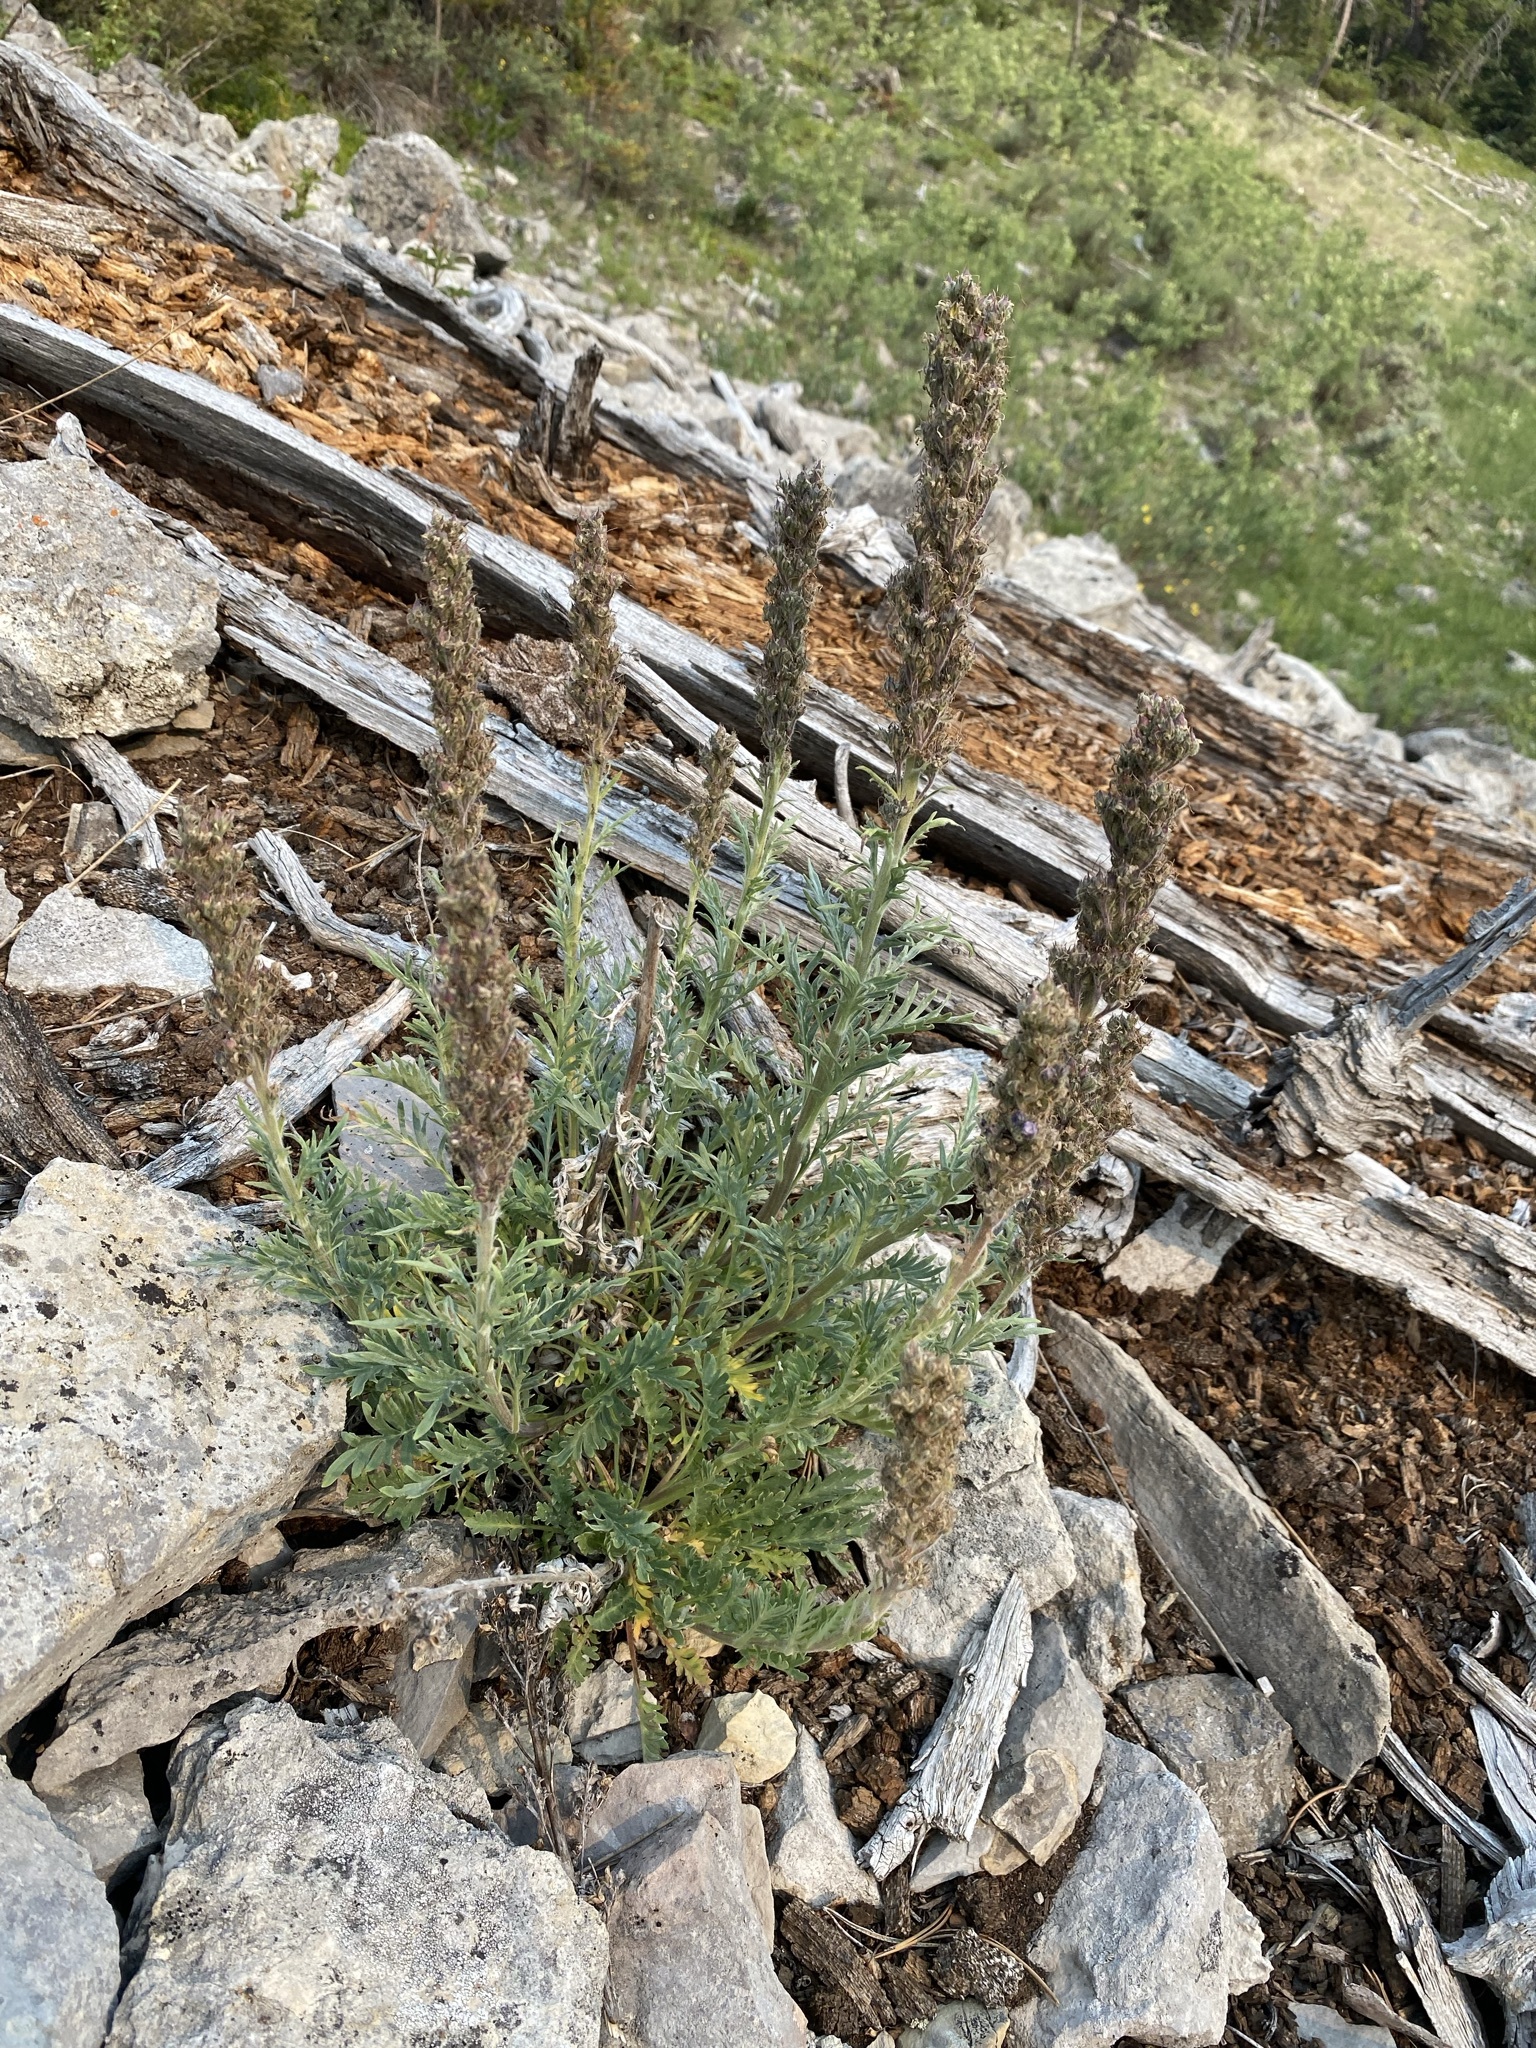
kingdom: Plantae
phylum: Tracheophyta
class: Magnoliopsida
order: Boraginales
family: Hydrophyllaceae
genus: Phacelia
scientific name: Phacelia sericea
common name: Silky phacelia
